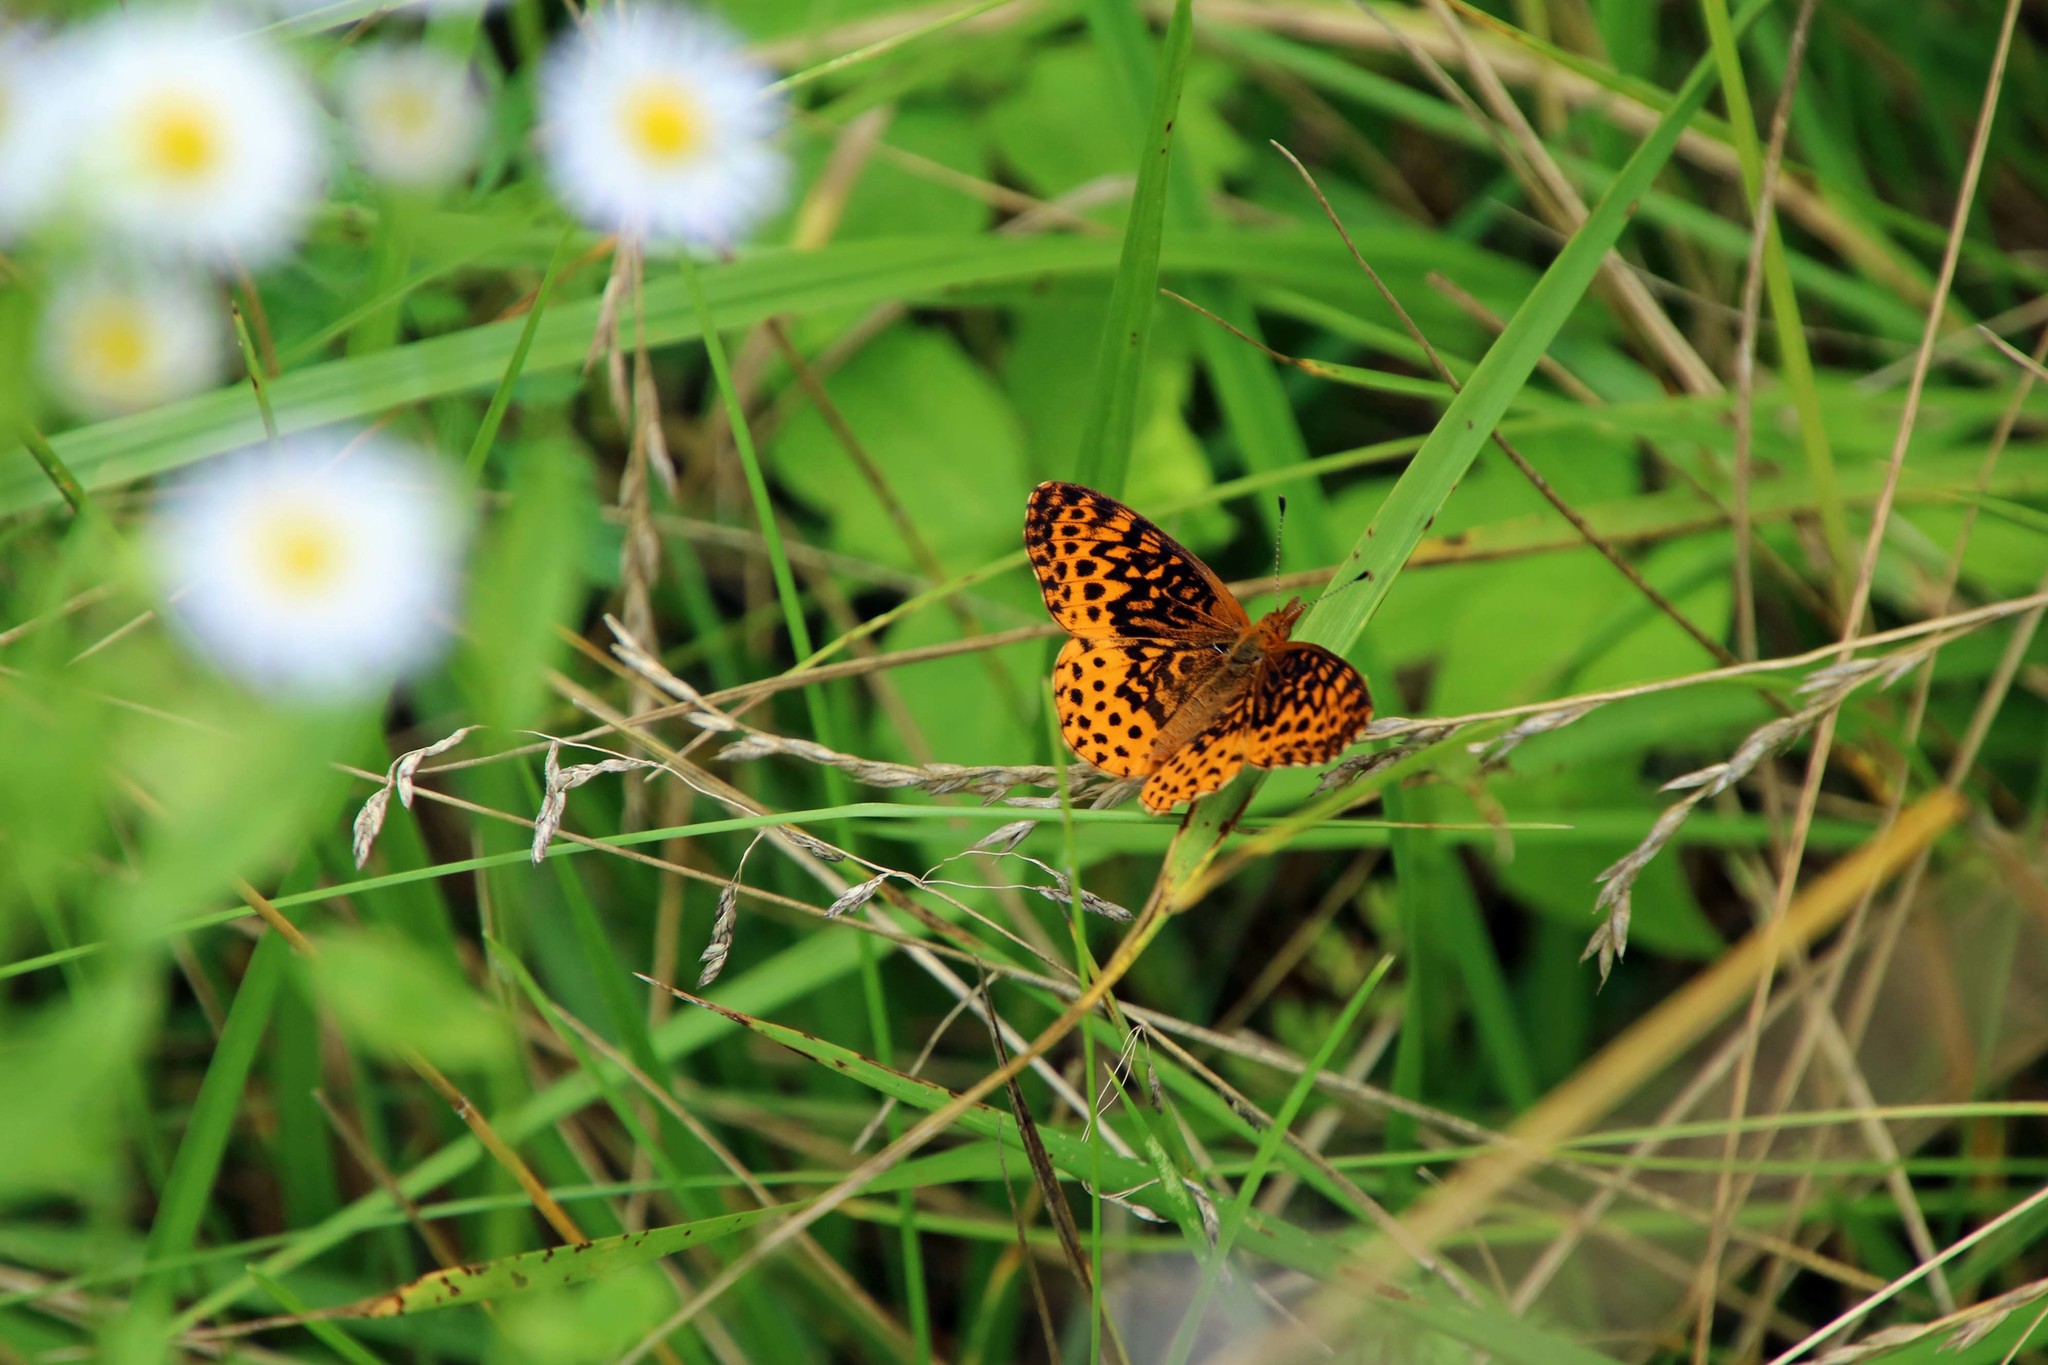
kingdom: Animalia
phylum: Arthropoda
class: Insecta
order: Lepidoptera
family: Nymphalidae
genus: Clossiana
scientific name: Clossiana toddi
